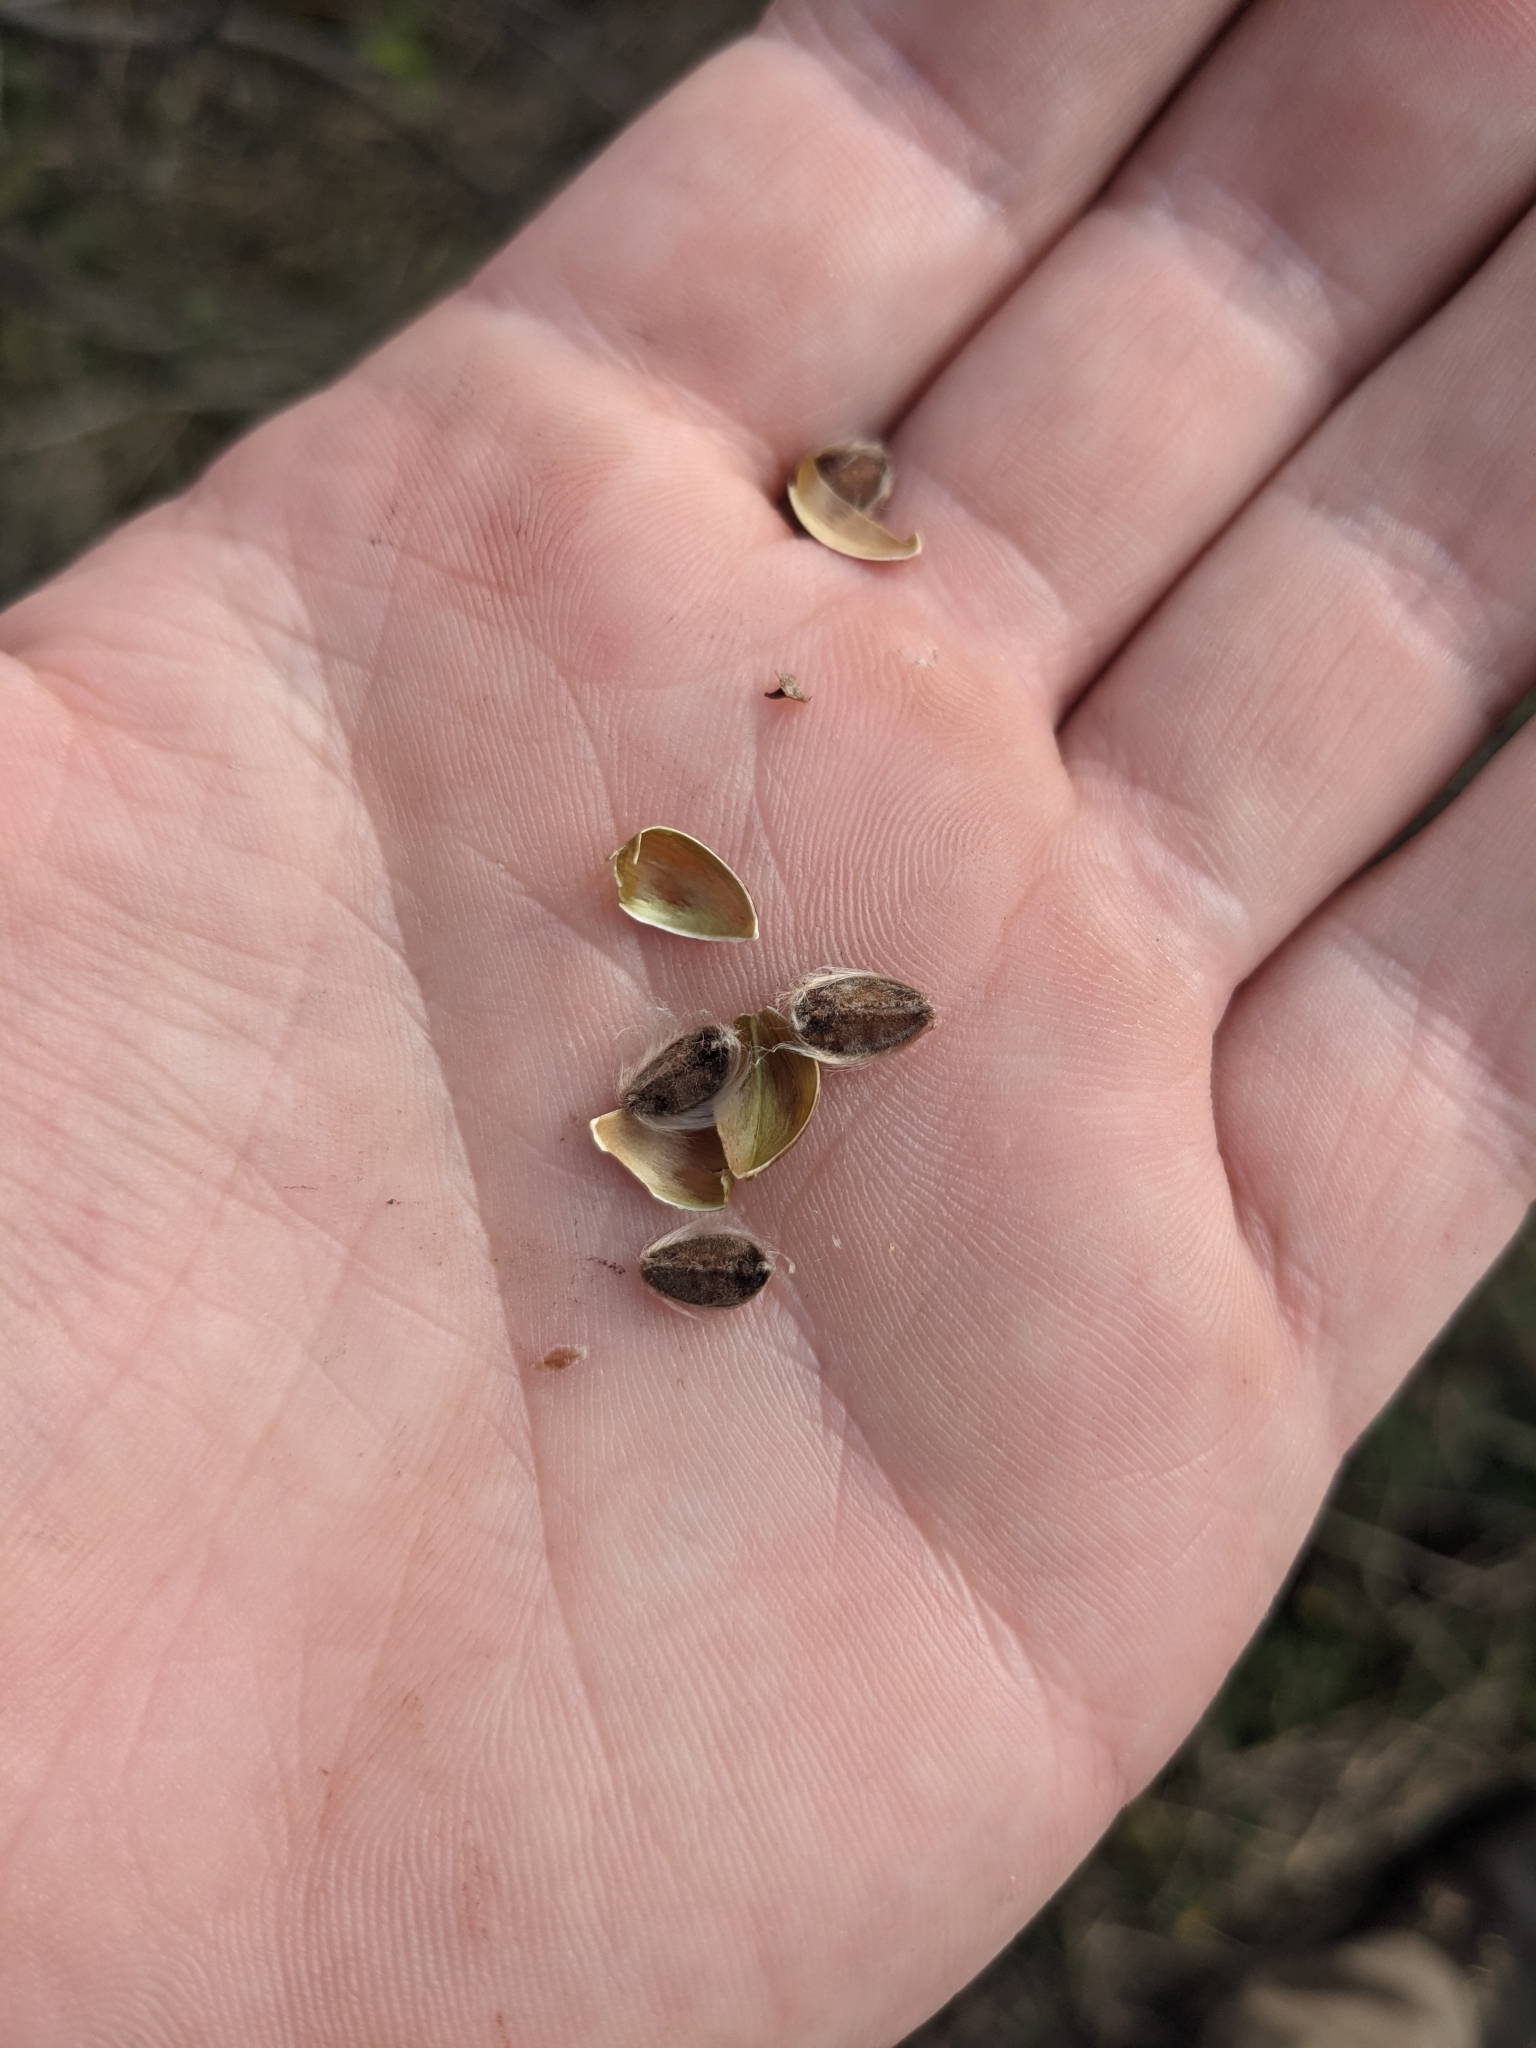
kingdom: Plantae
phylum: Tracheophyta
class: Magnoliopsida
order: Solanales
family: Convolvulaceae
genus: Ipomoea
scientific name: Ipomoea amnicola
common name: Redcenter morning-glory
